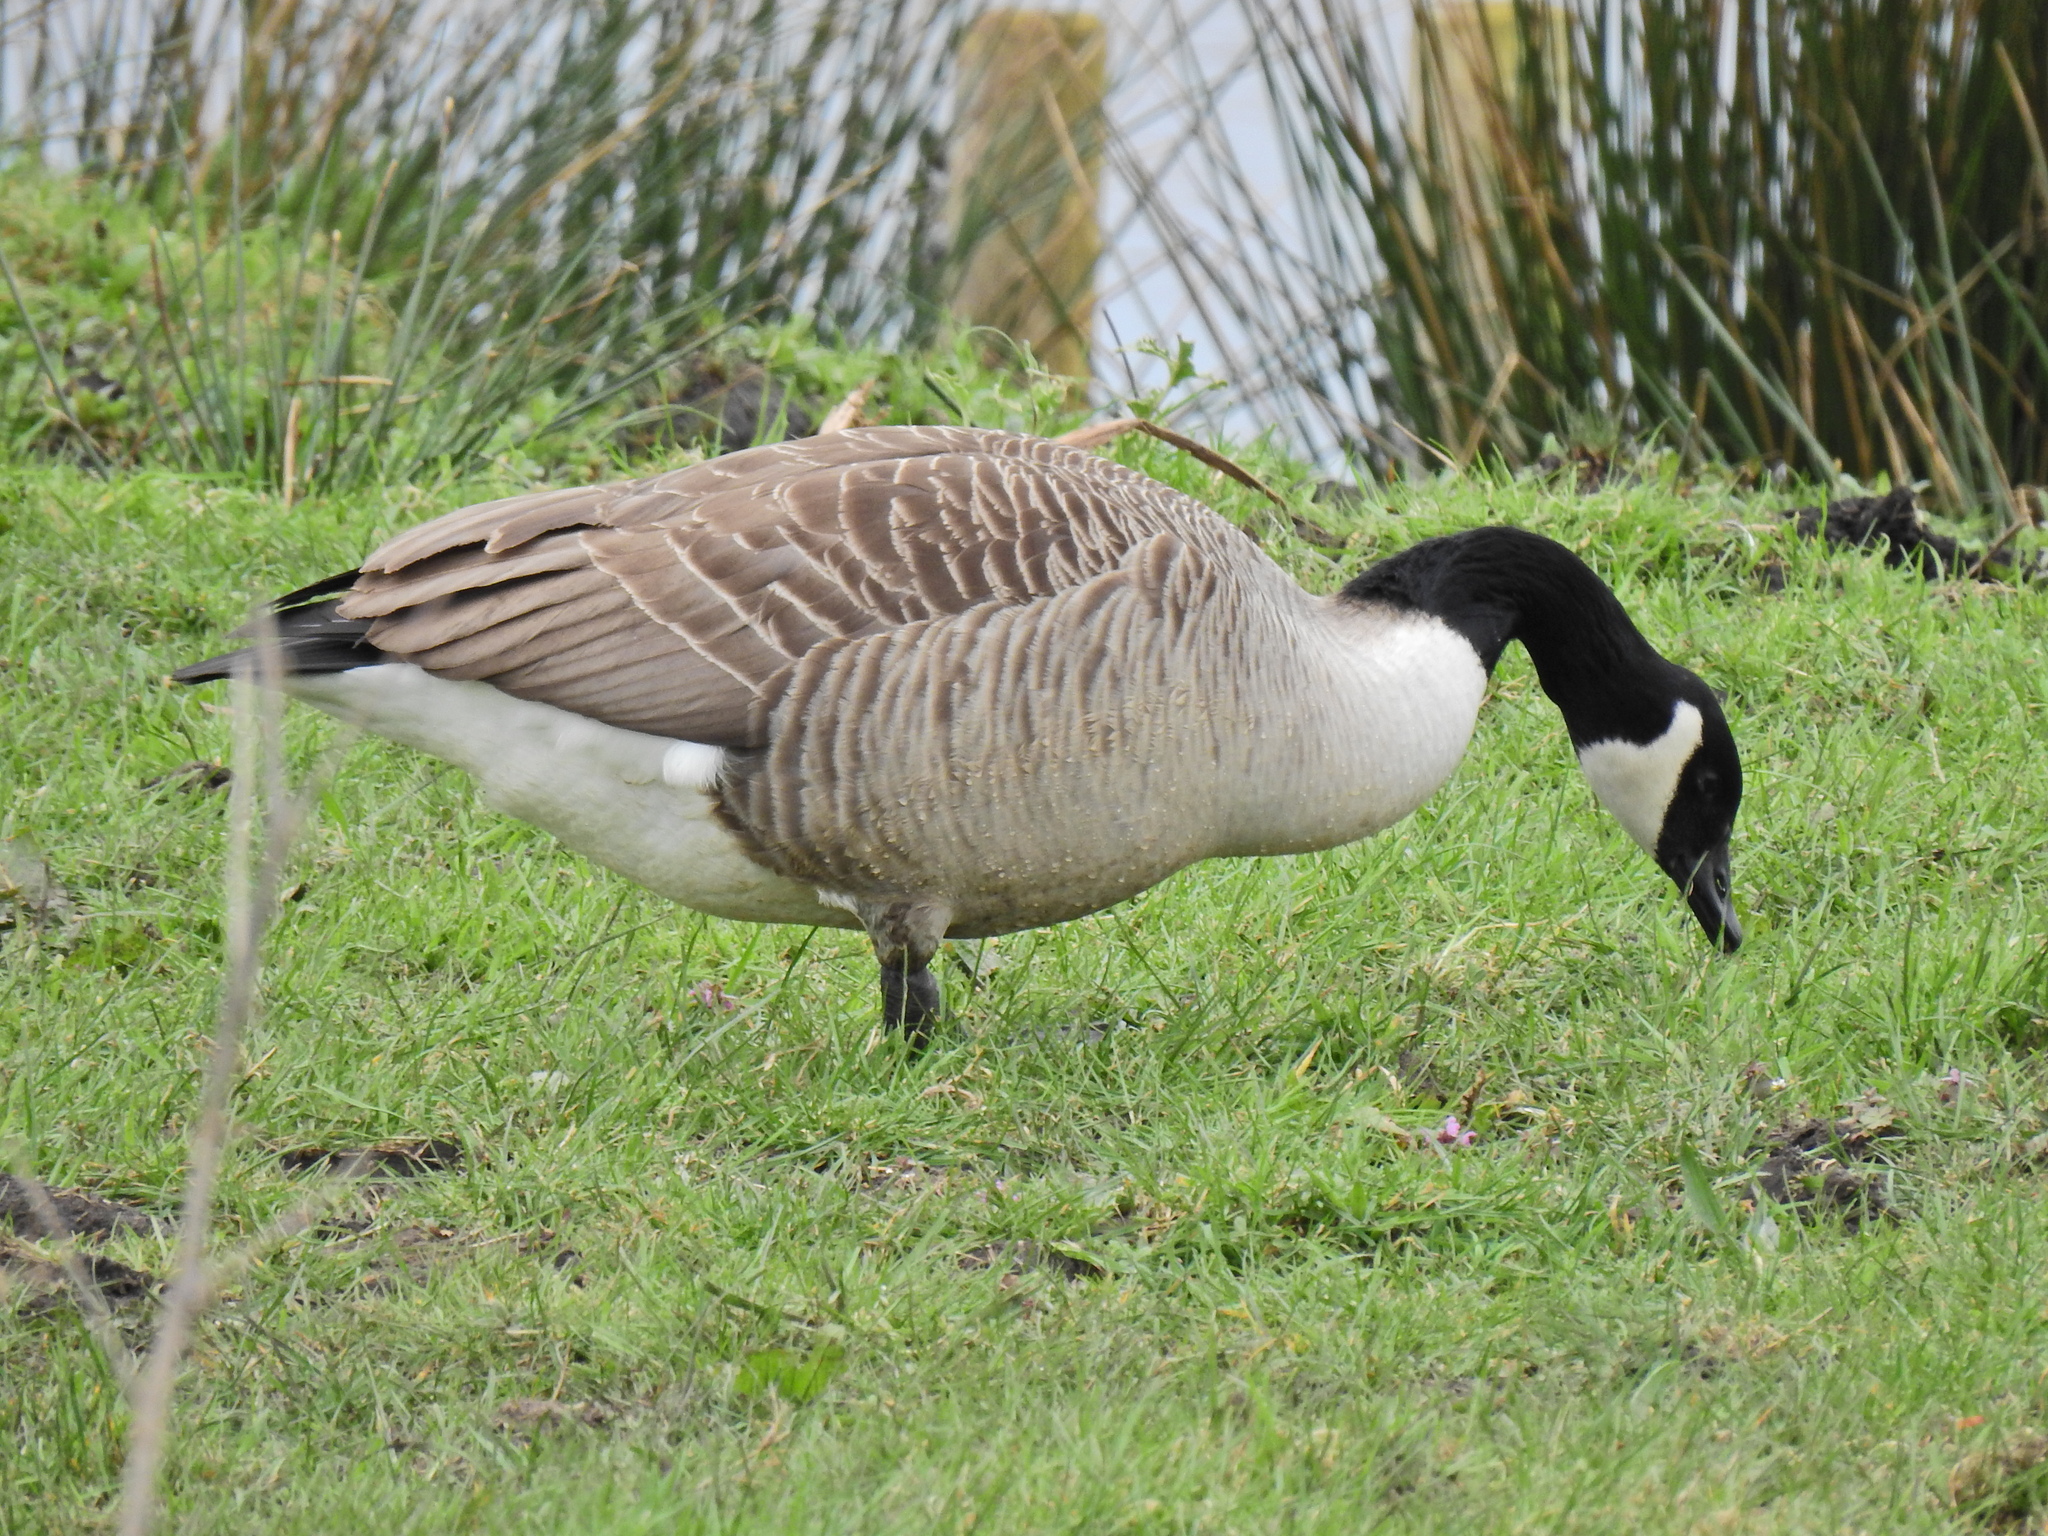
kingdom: Animalia
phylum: Chordata
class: Aves
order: Anseriformes
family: Anatidae
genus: Branta
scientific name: Branta canadensis
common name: Canada goose
